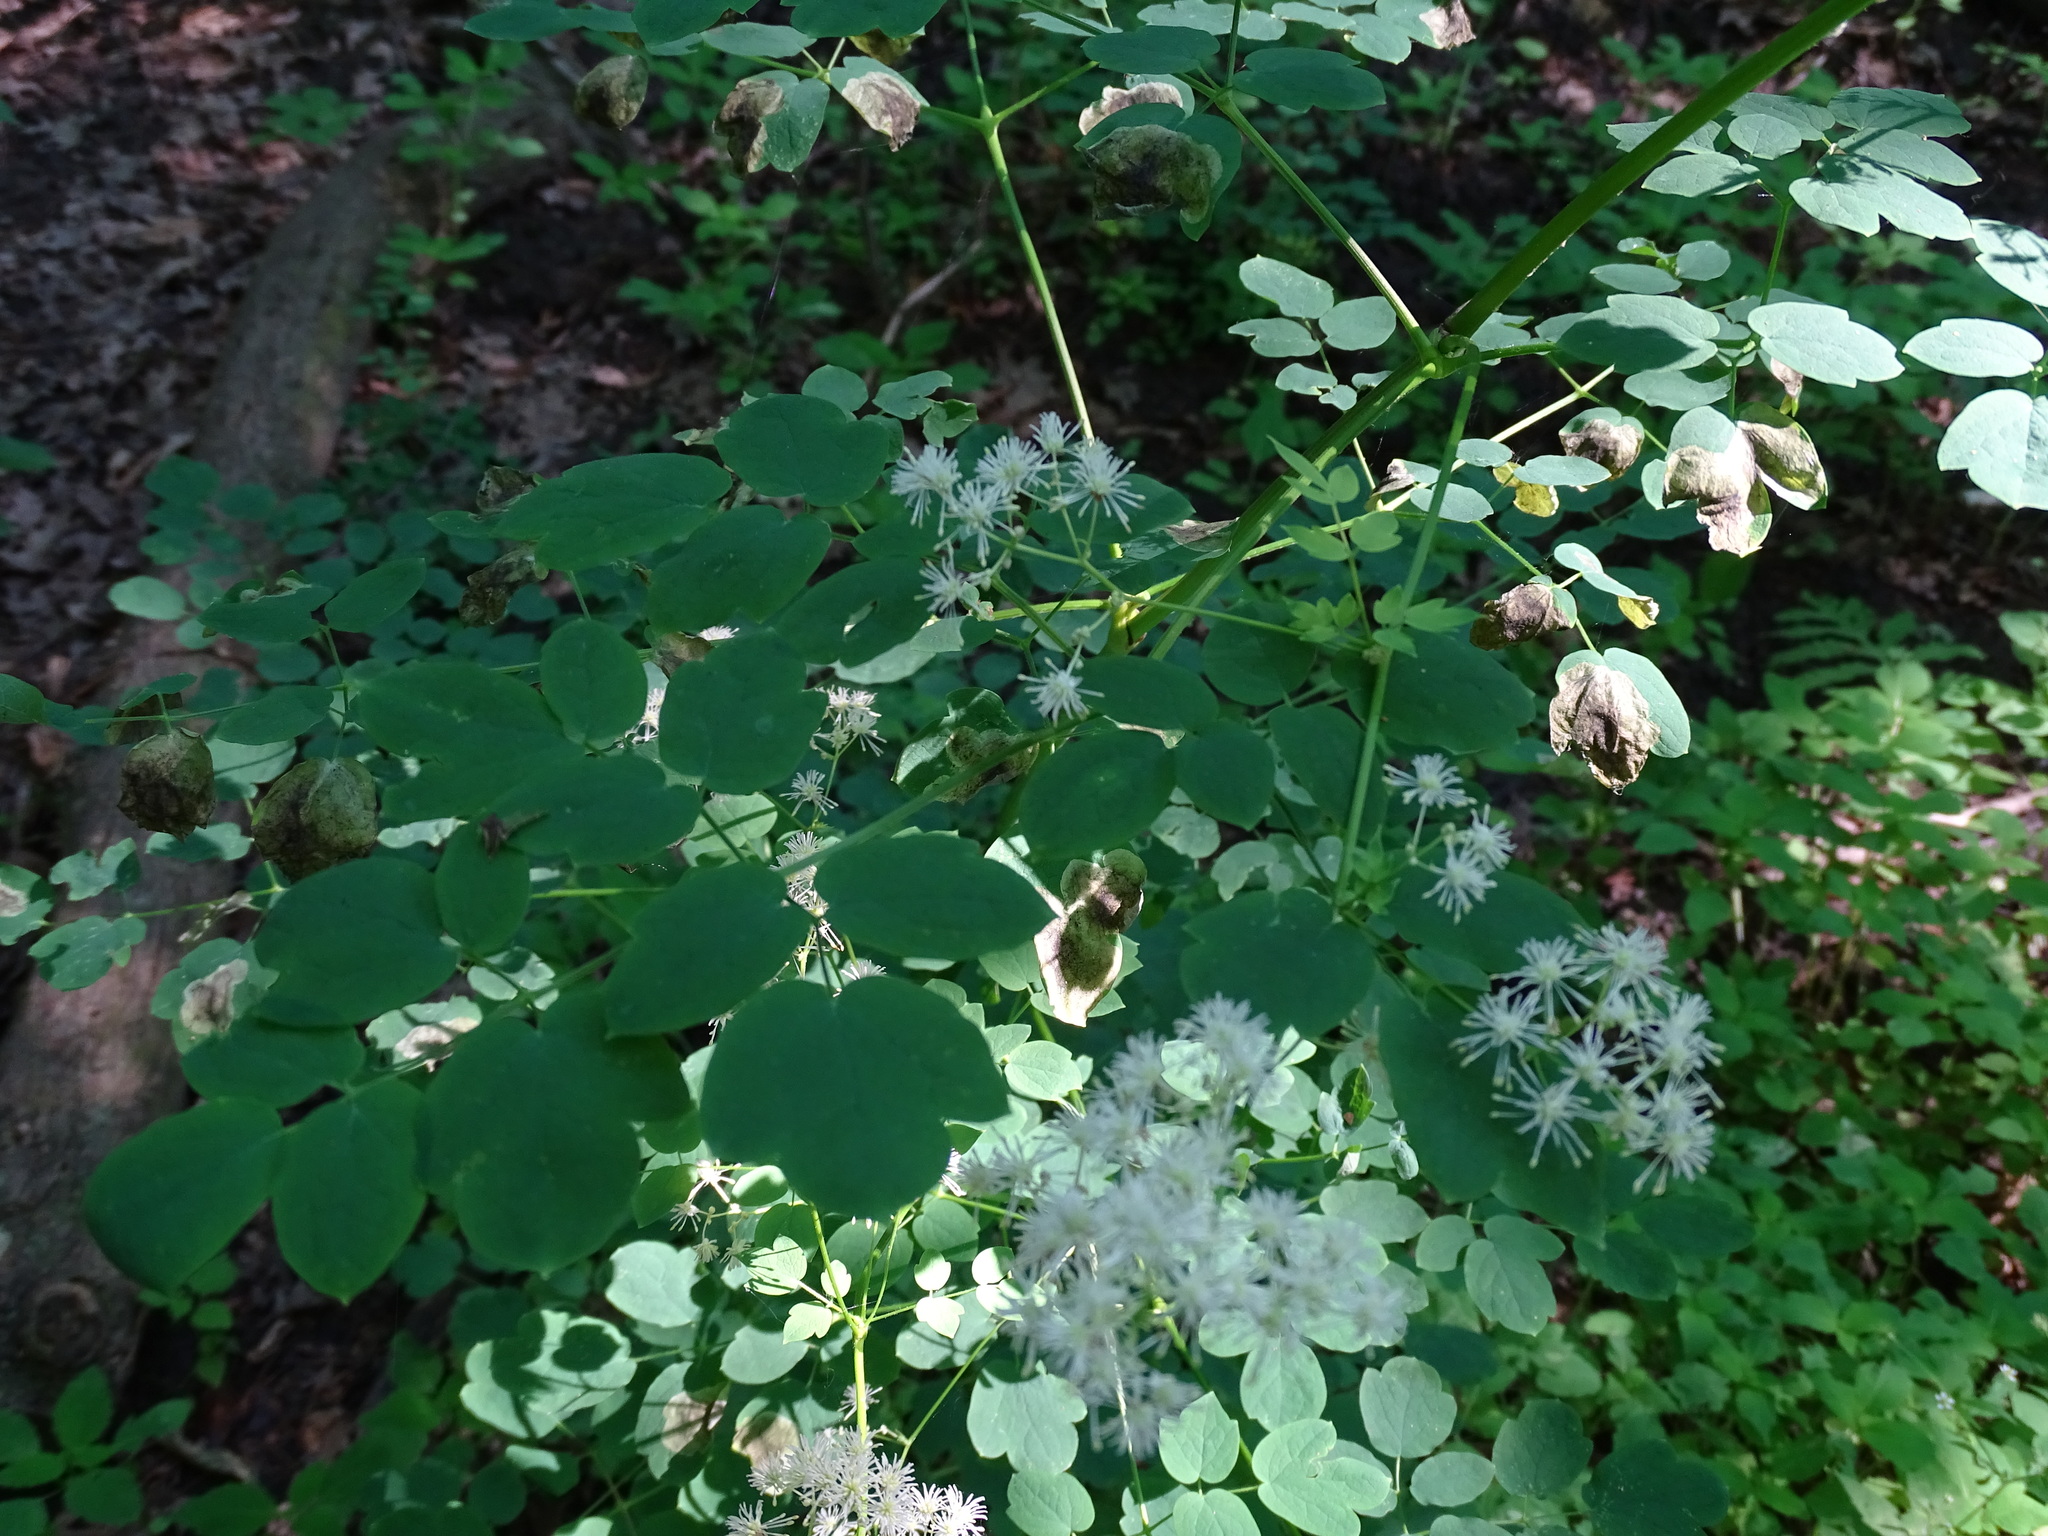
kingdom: Plantae
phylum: Tracheophyta
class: Magnoliopsida
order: Ranunculales
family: Ranunculaceae
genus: Thalictrum
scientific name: Thalictrum pubescens
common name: King-of-the-meadow
